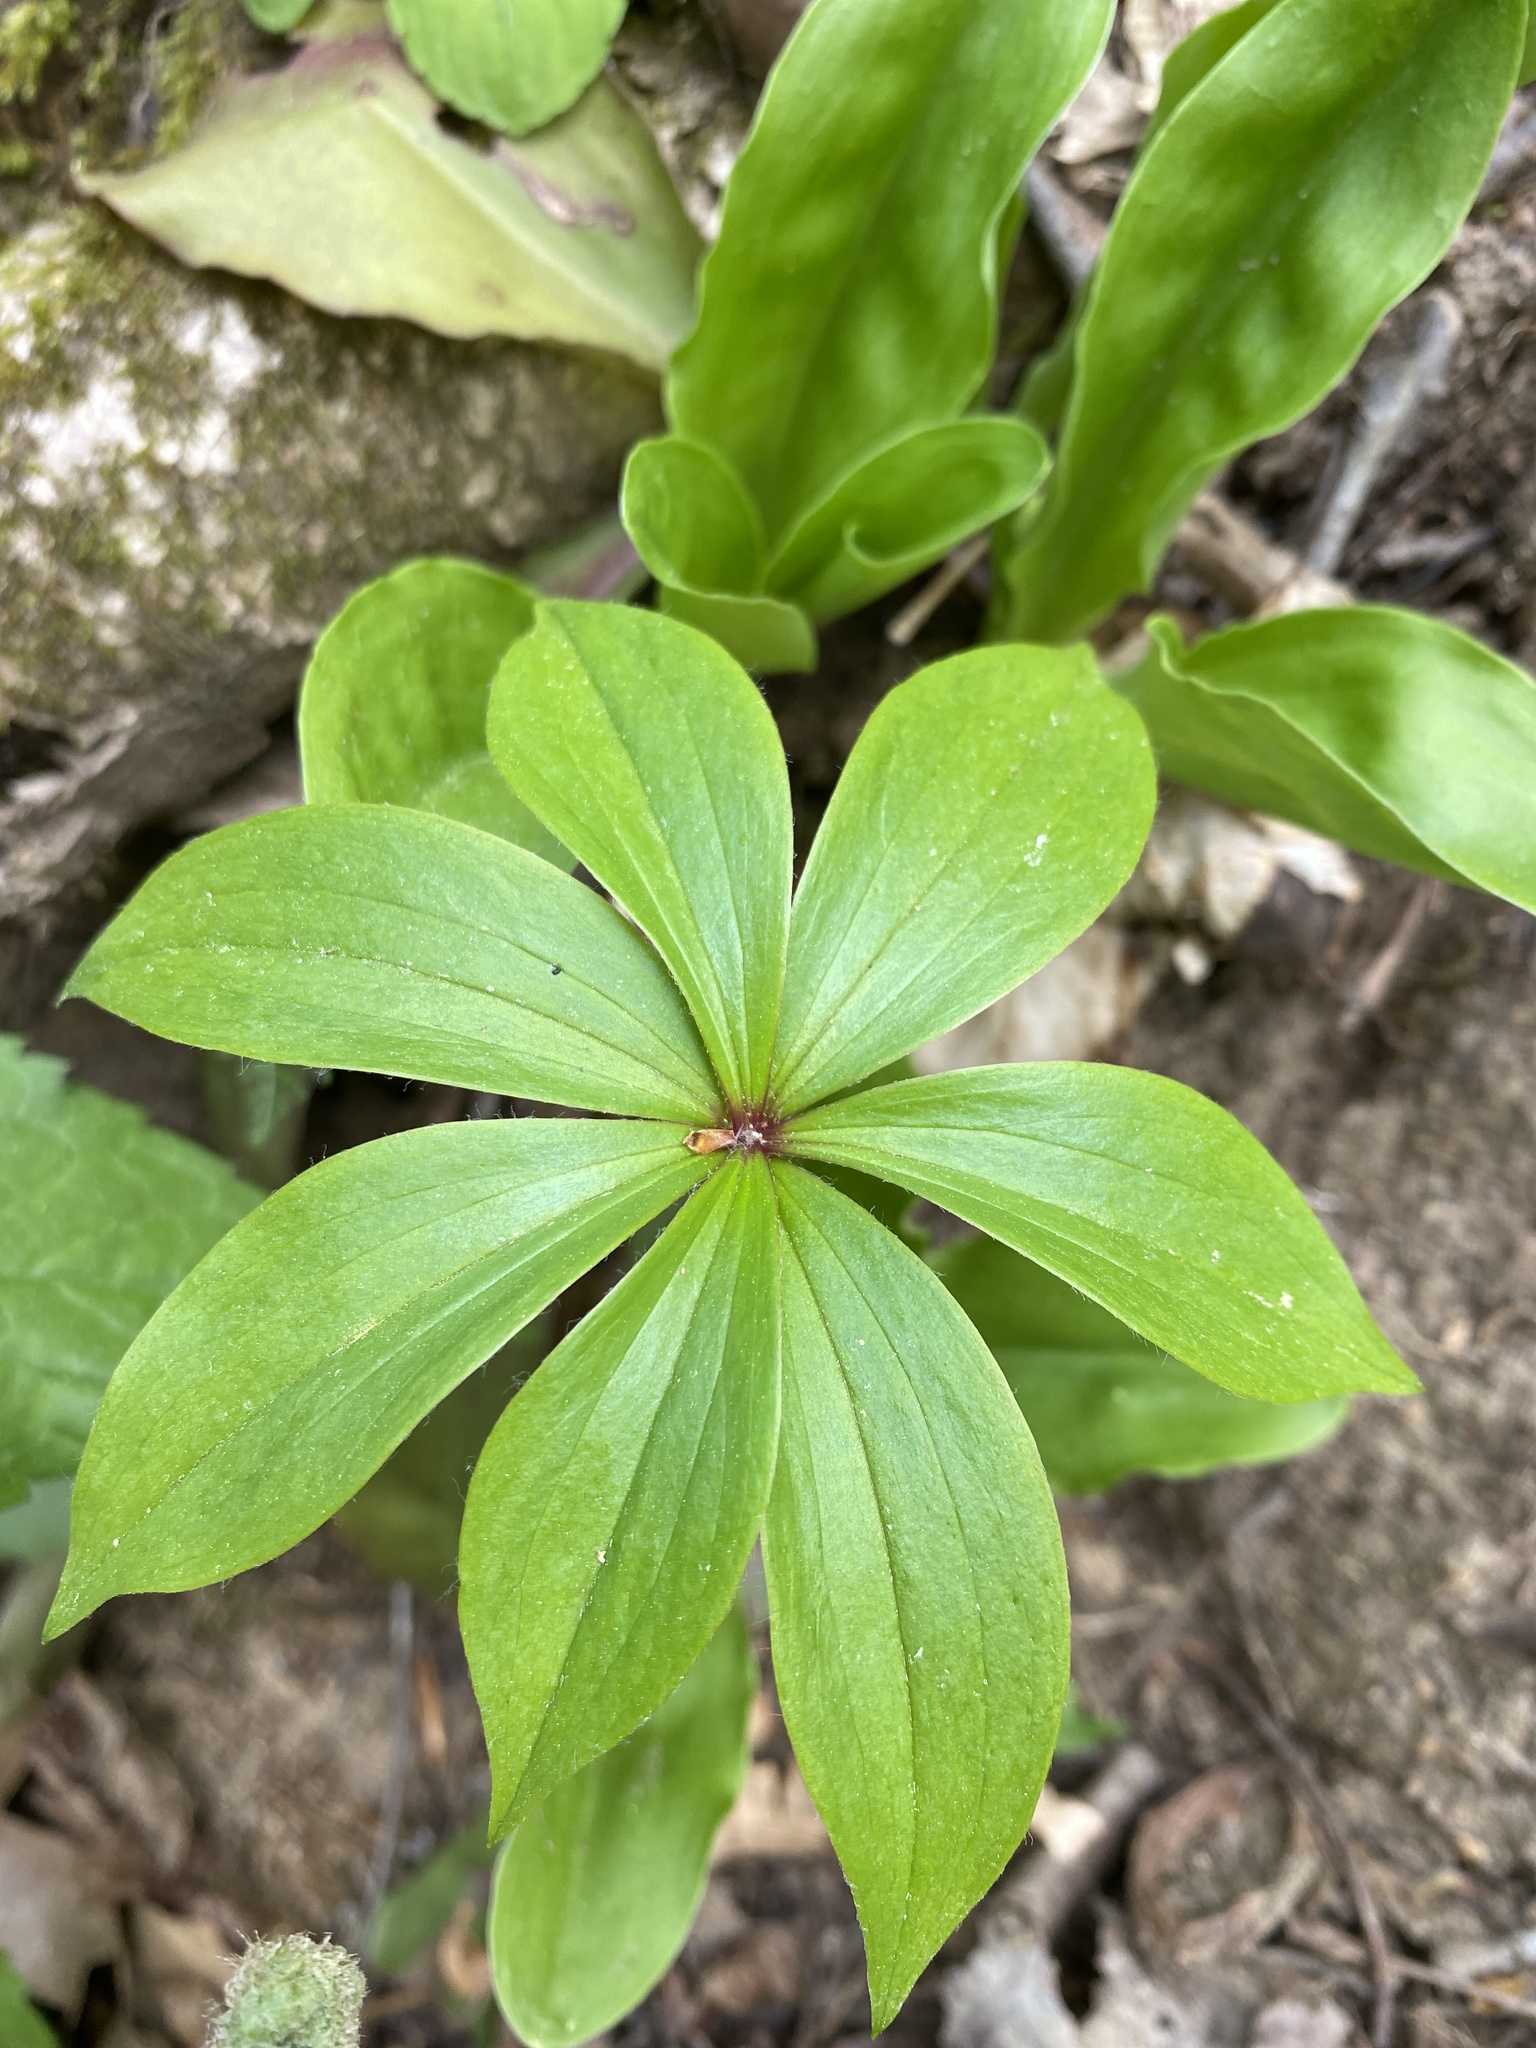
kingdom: Plantae
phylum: Tracheophyta
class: Liliopsida
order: Liliales
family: Liliaceae
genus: Medeola
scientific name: Medeola virginiana
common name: Indian cucumber-root
